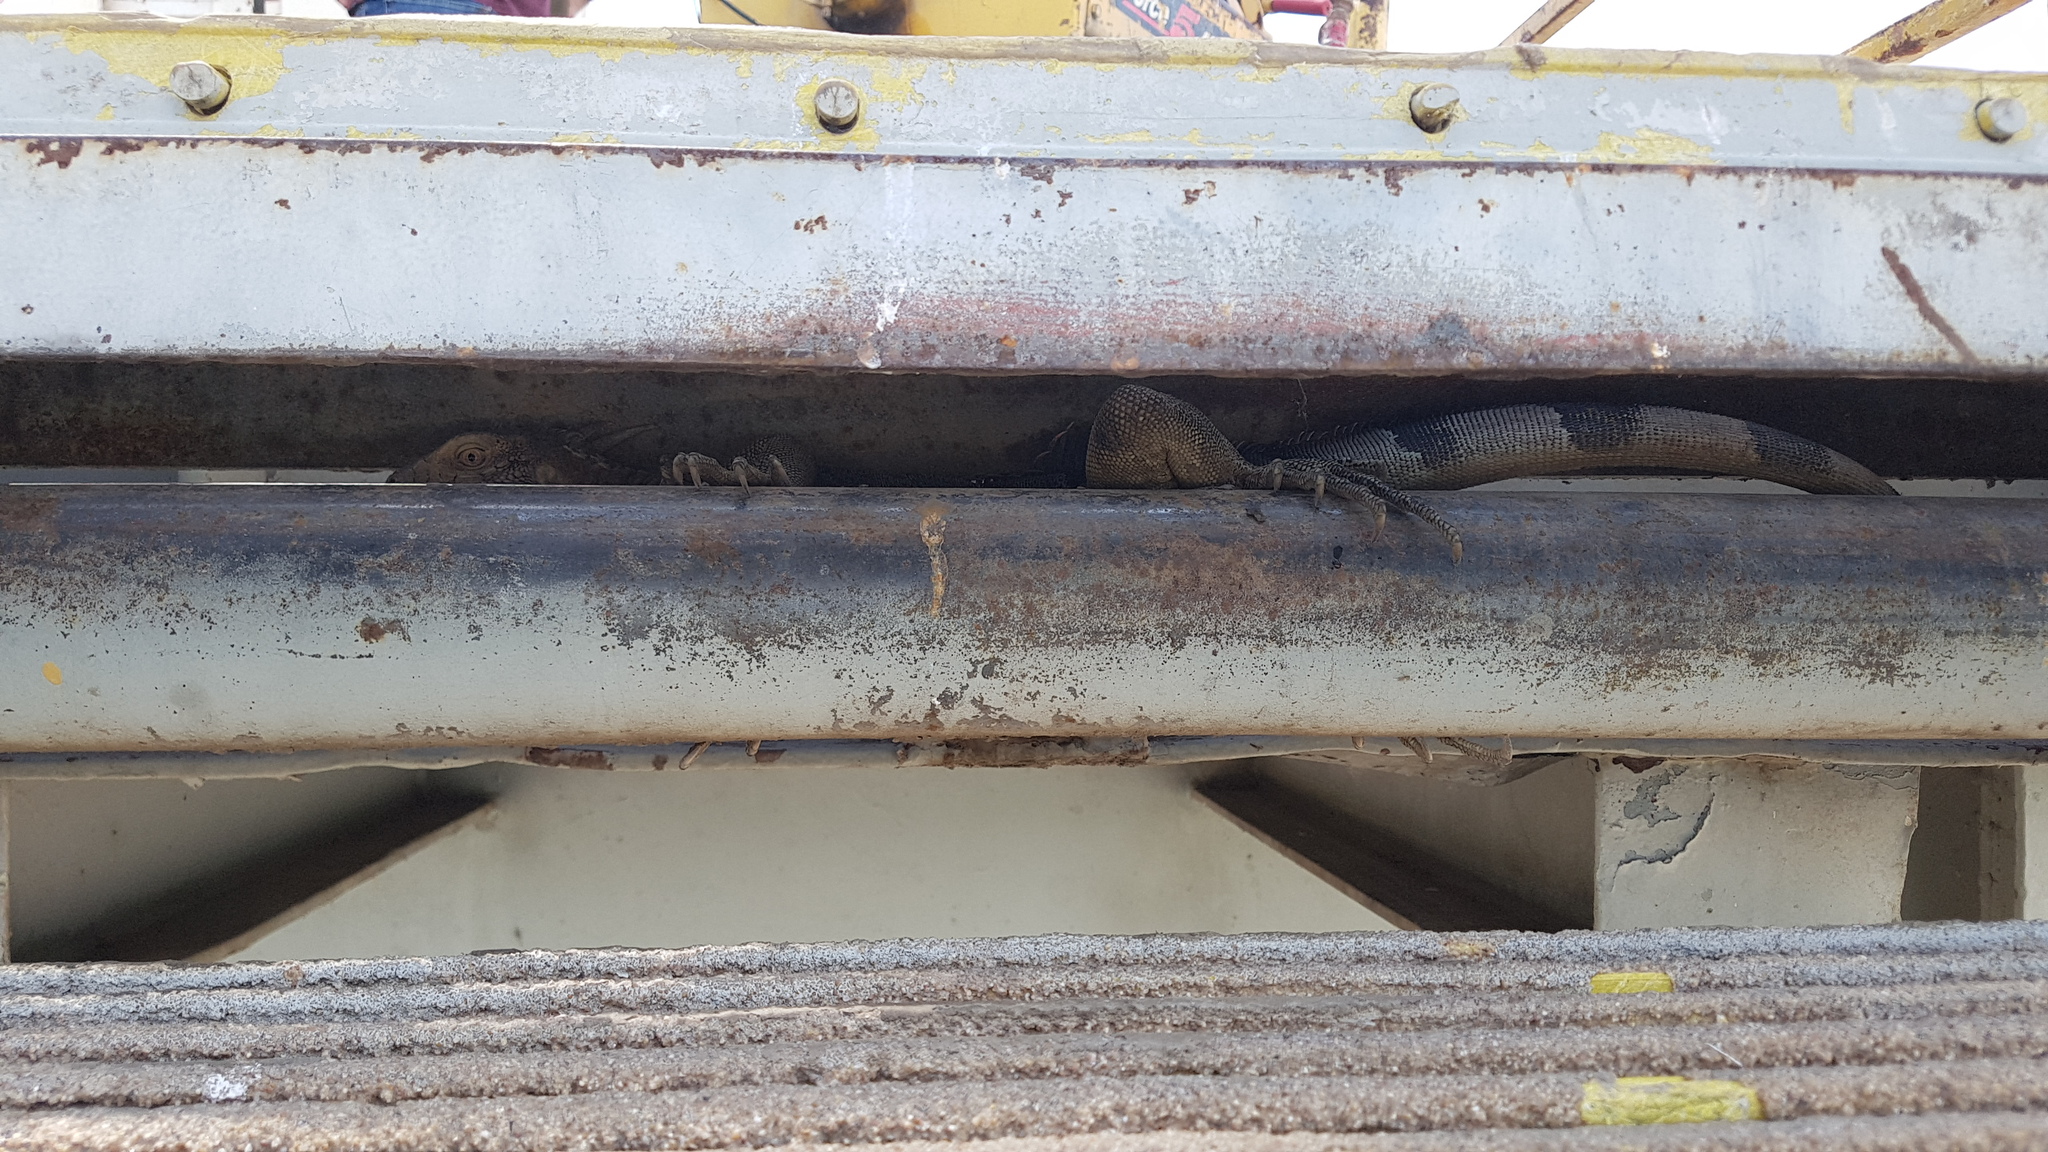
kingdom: Animalia
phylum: Chordata
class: Squamata
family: Iguanidae
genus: Iguana
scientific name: Iguana iguana
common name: Green iguana
